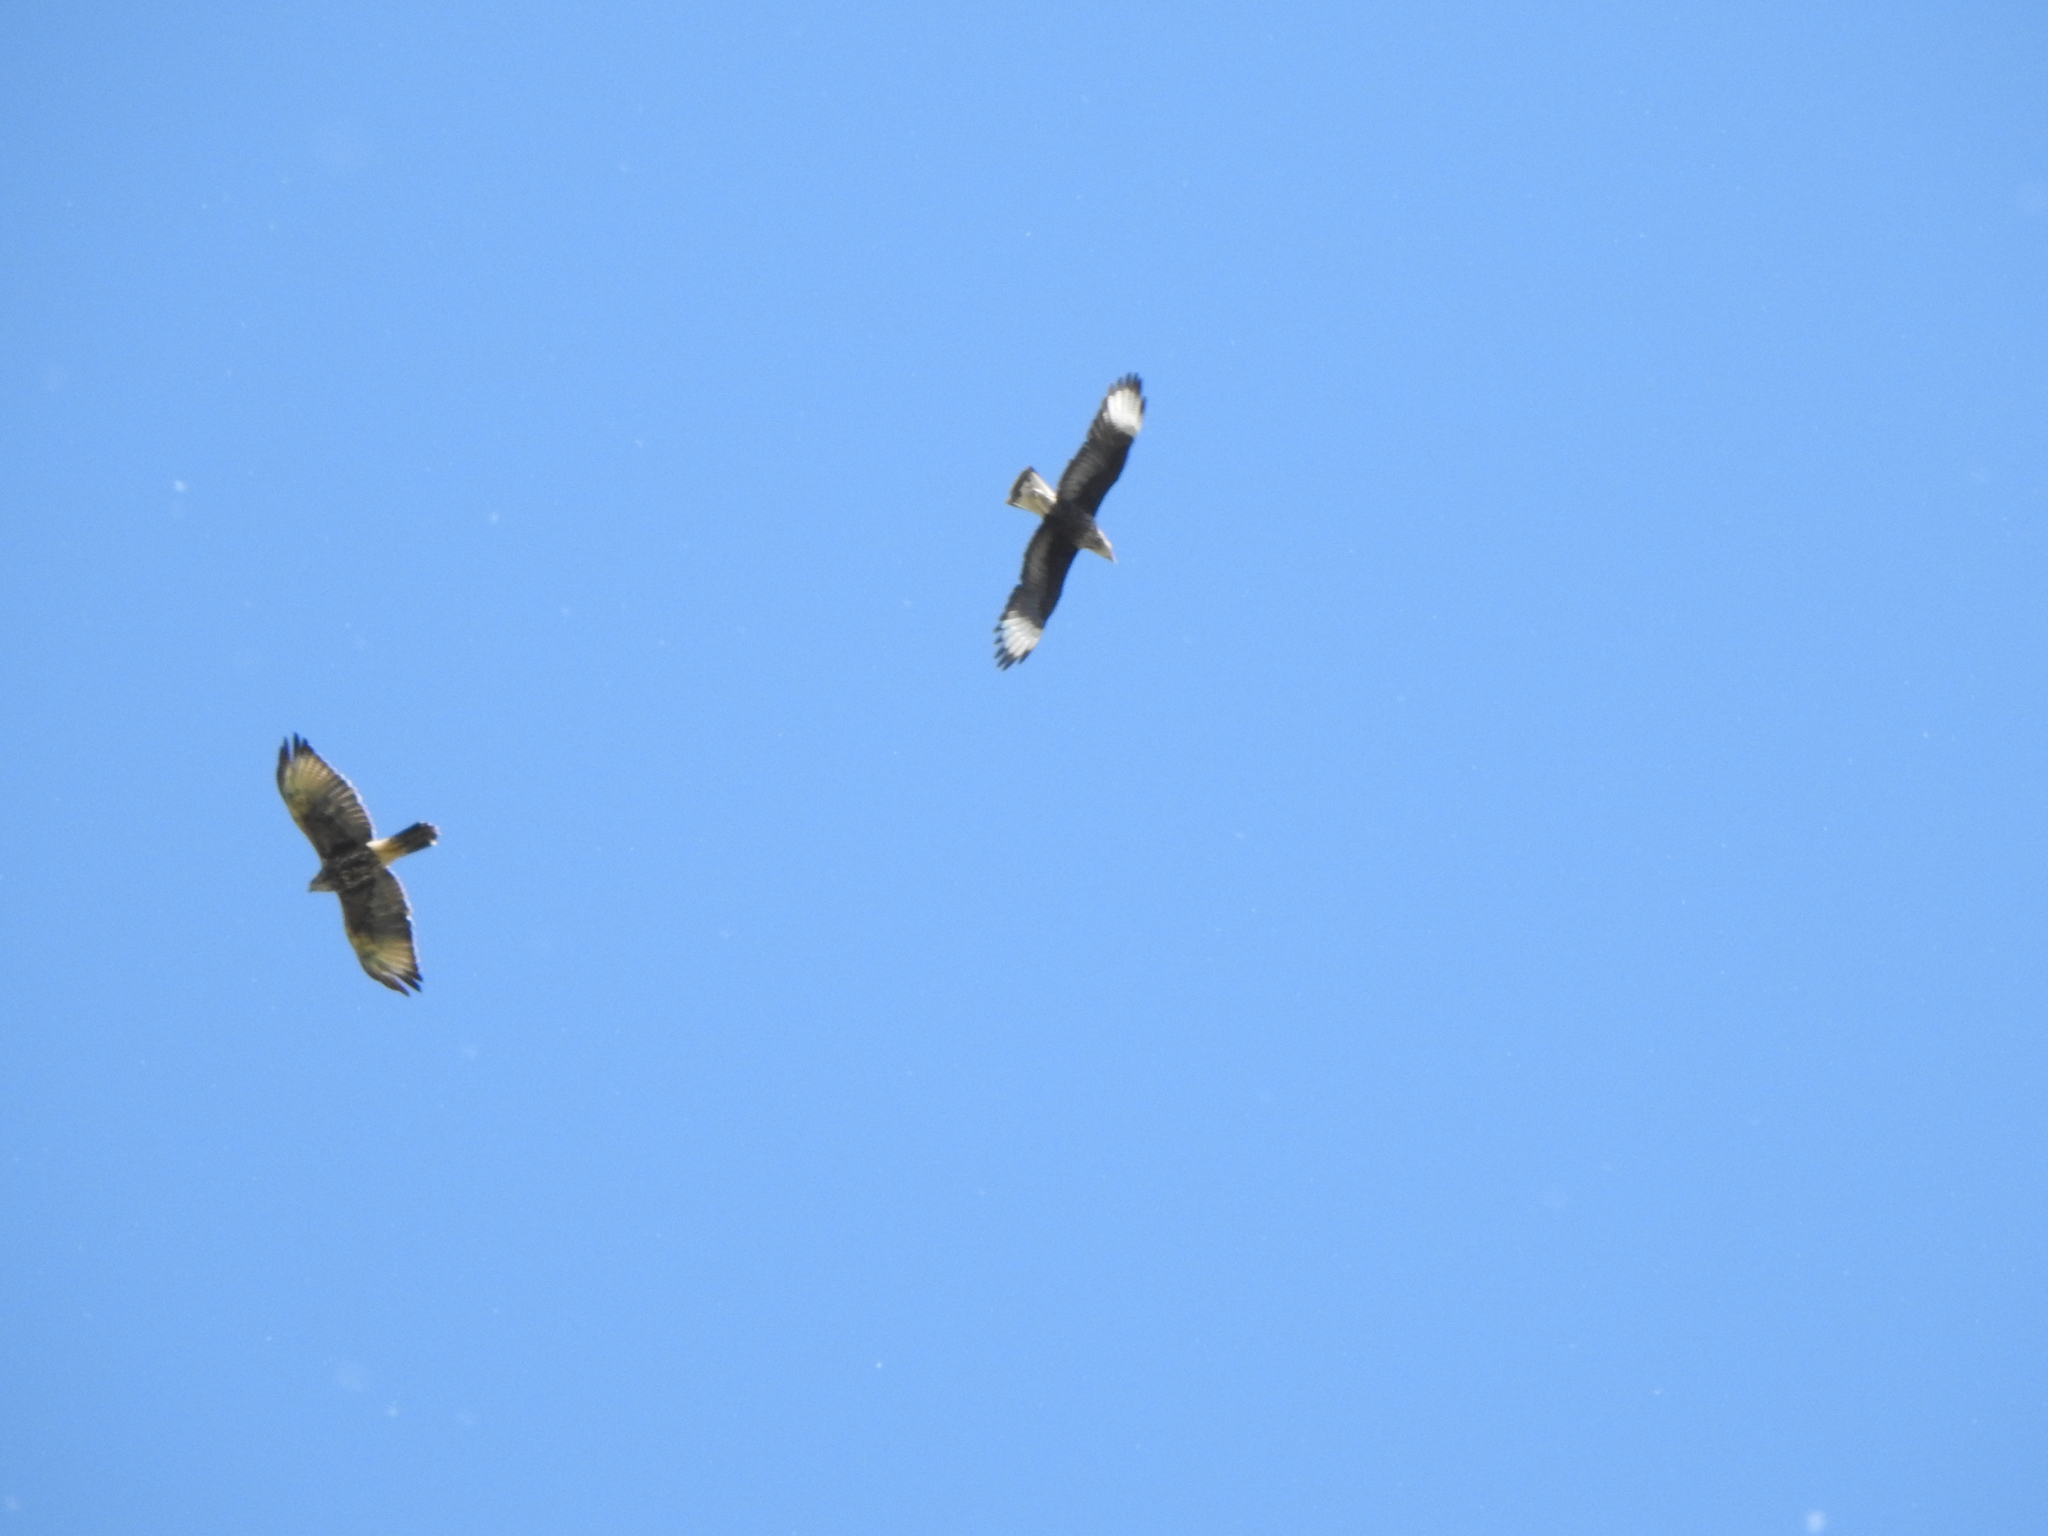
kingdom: Animalia
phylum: Chordata
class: Aves
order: Accipitriformes
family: Accipitridae
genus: Parabuteo
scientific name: Parabuteo unicinctus
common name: Harris's hawk
